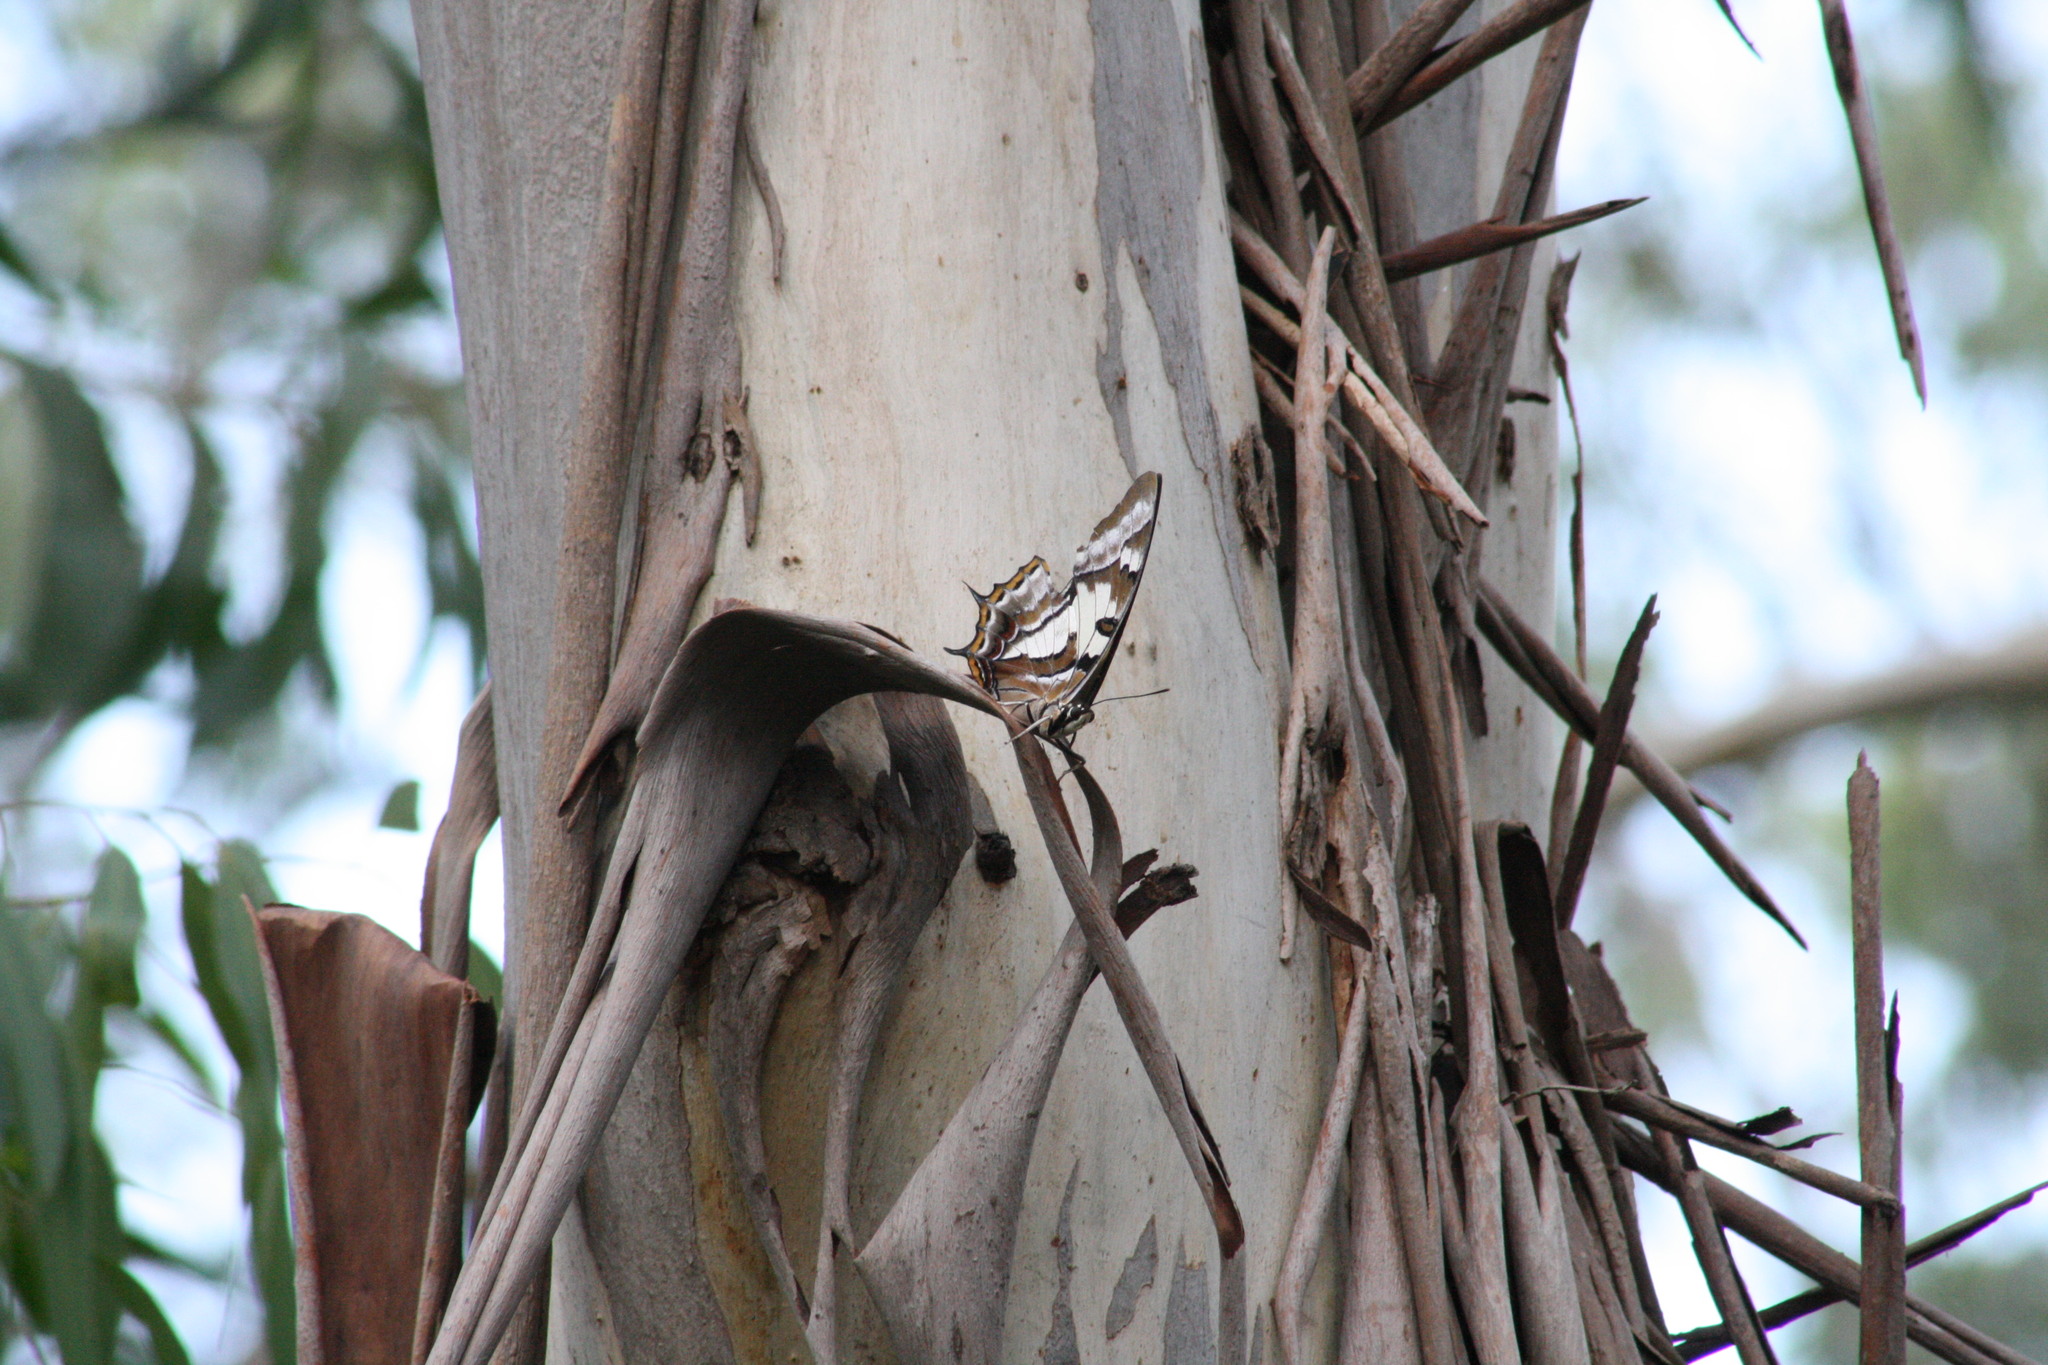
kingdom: Animalia
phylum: Arthropoda
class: Insecta
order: Lepidoptera
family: Nymphalidae
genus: Charaxes
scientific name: Charaxes
